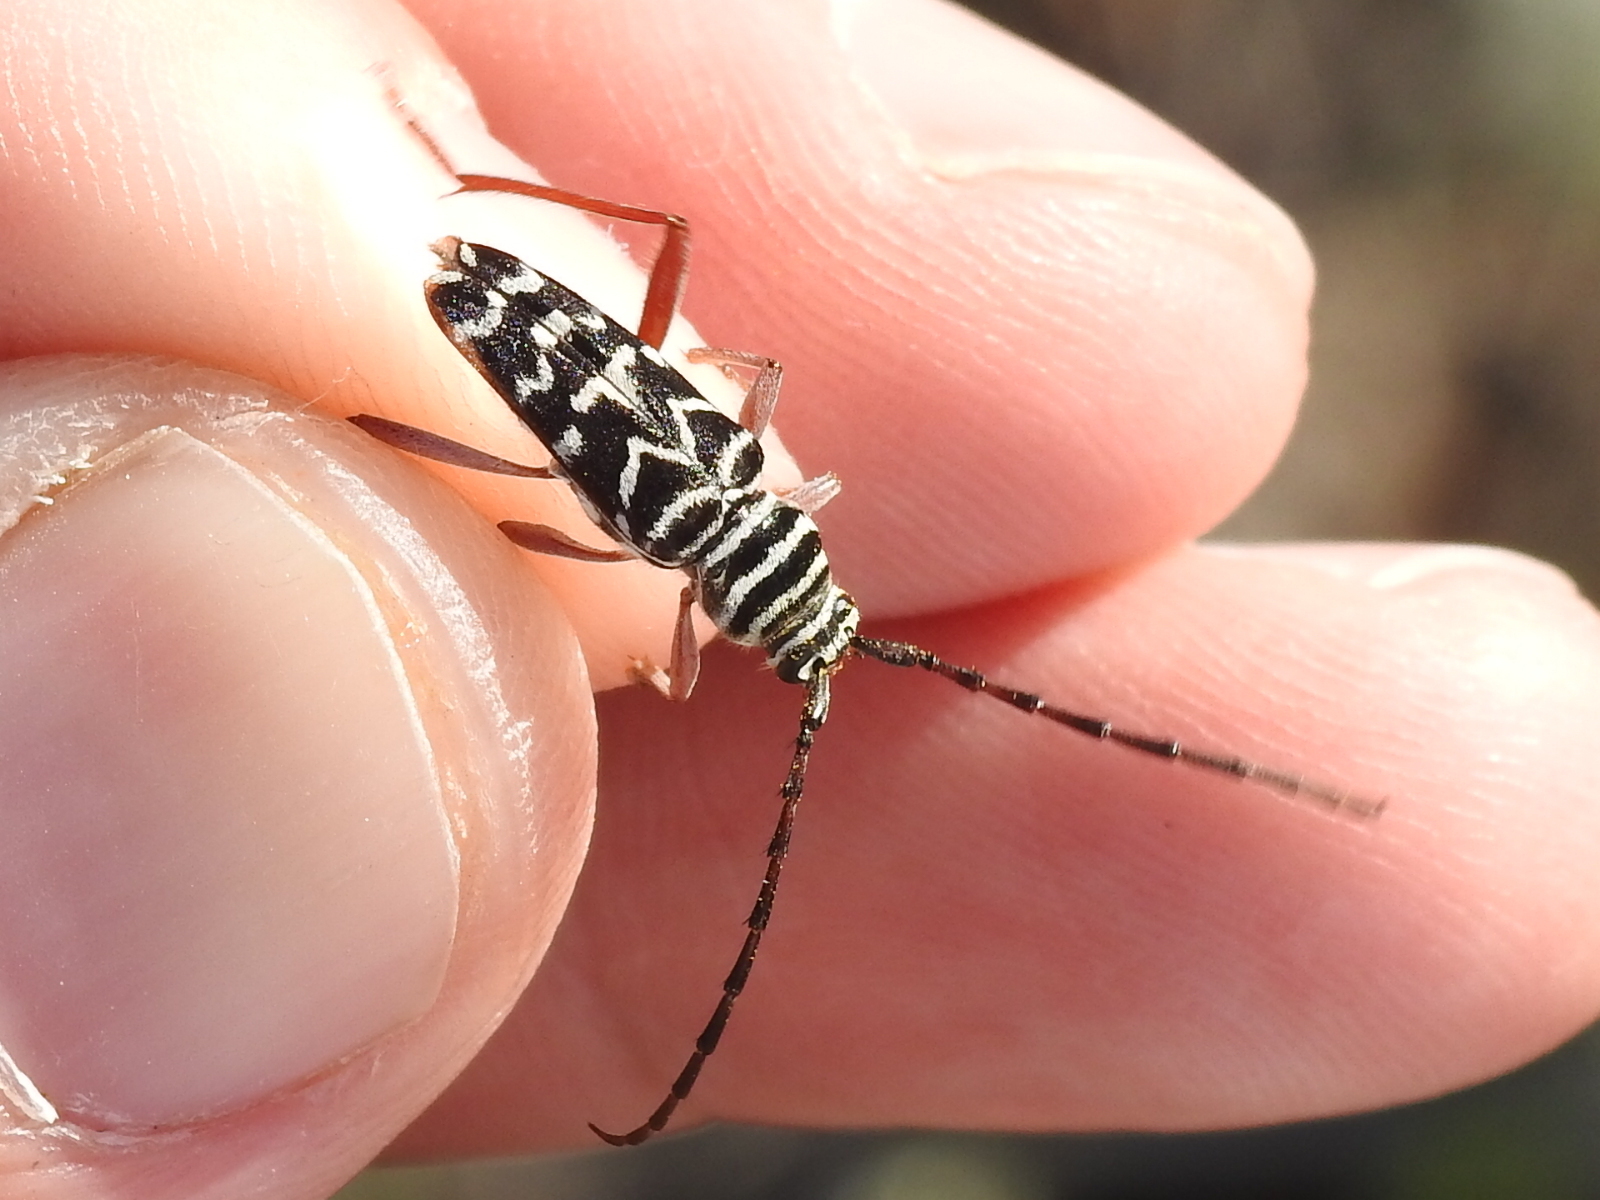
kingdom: Animalia
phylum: Arthropoda
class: Insecta
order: Coleoptera
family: Cerambycidae
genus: Megacyllene
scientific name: Megacyllene caryae
